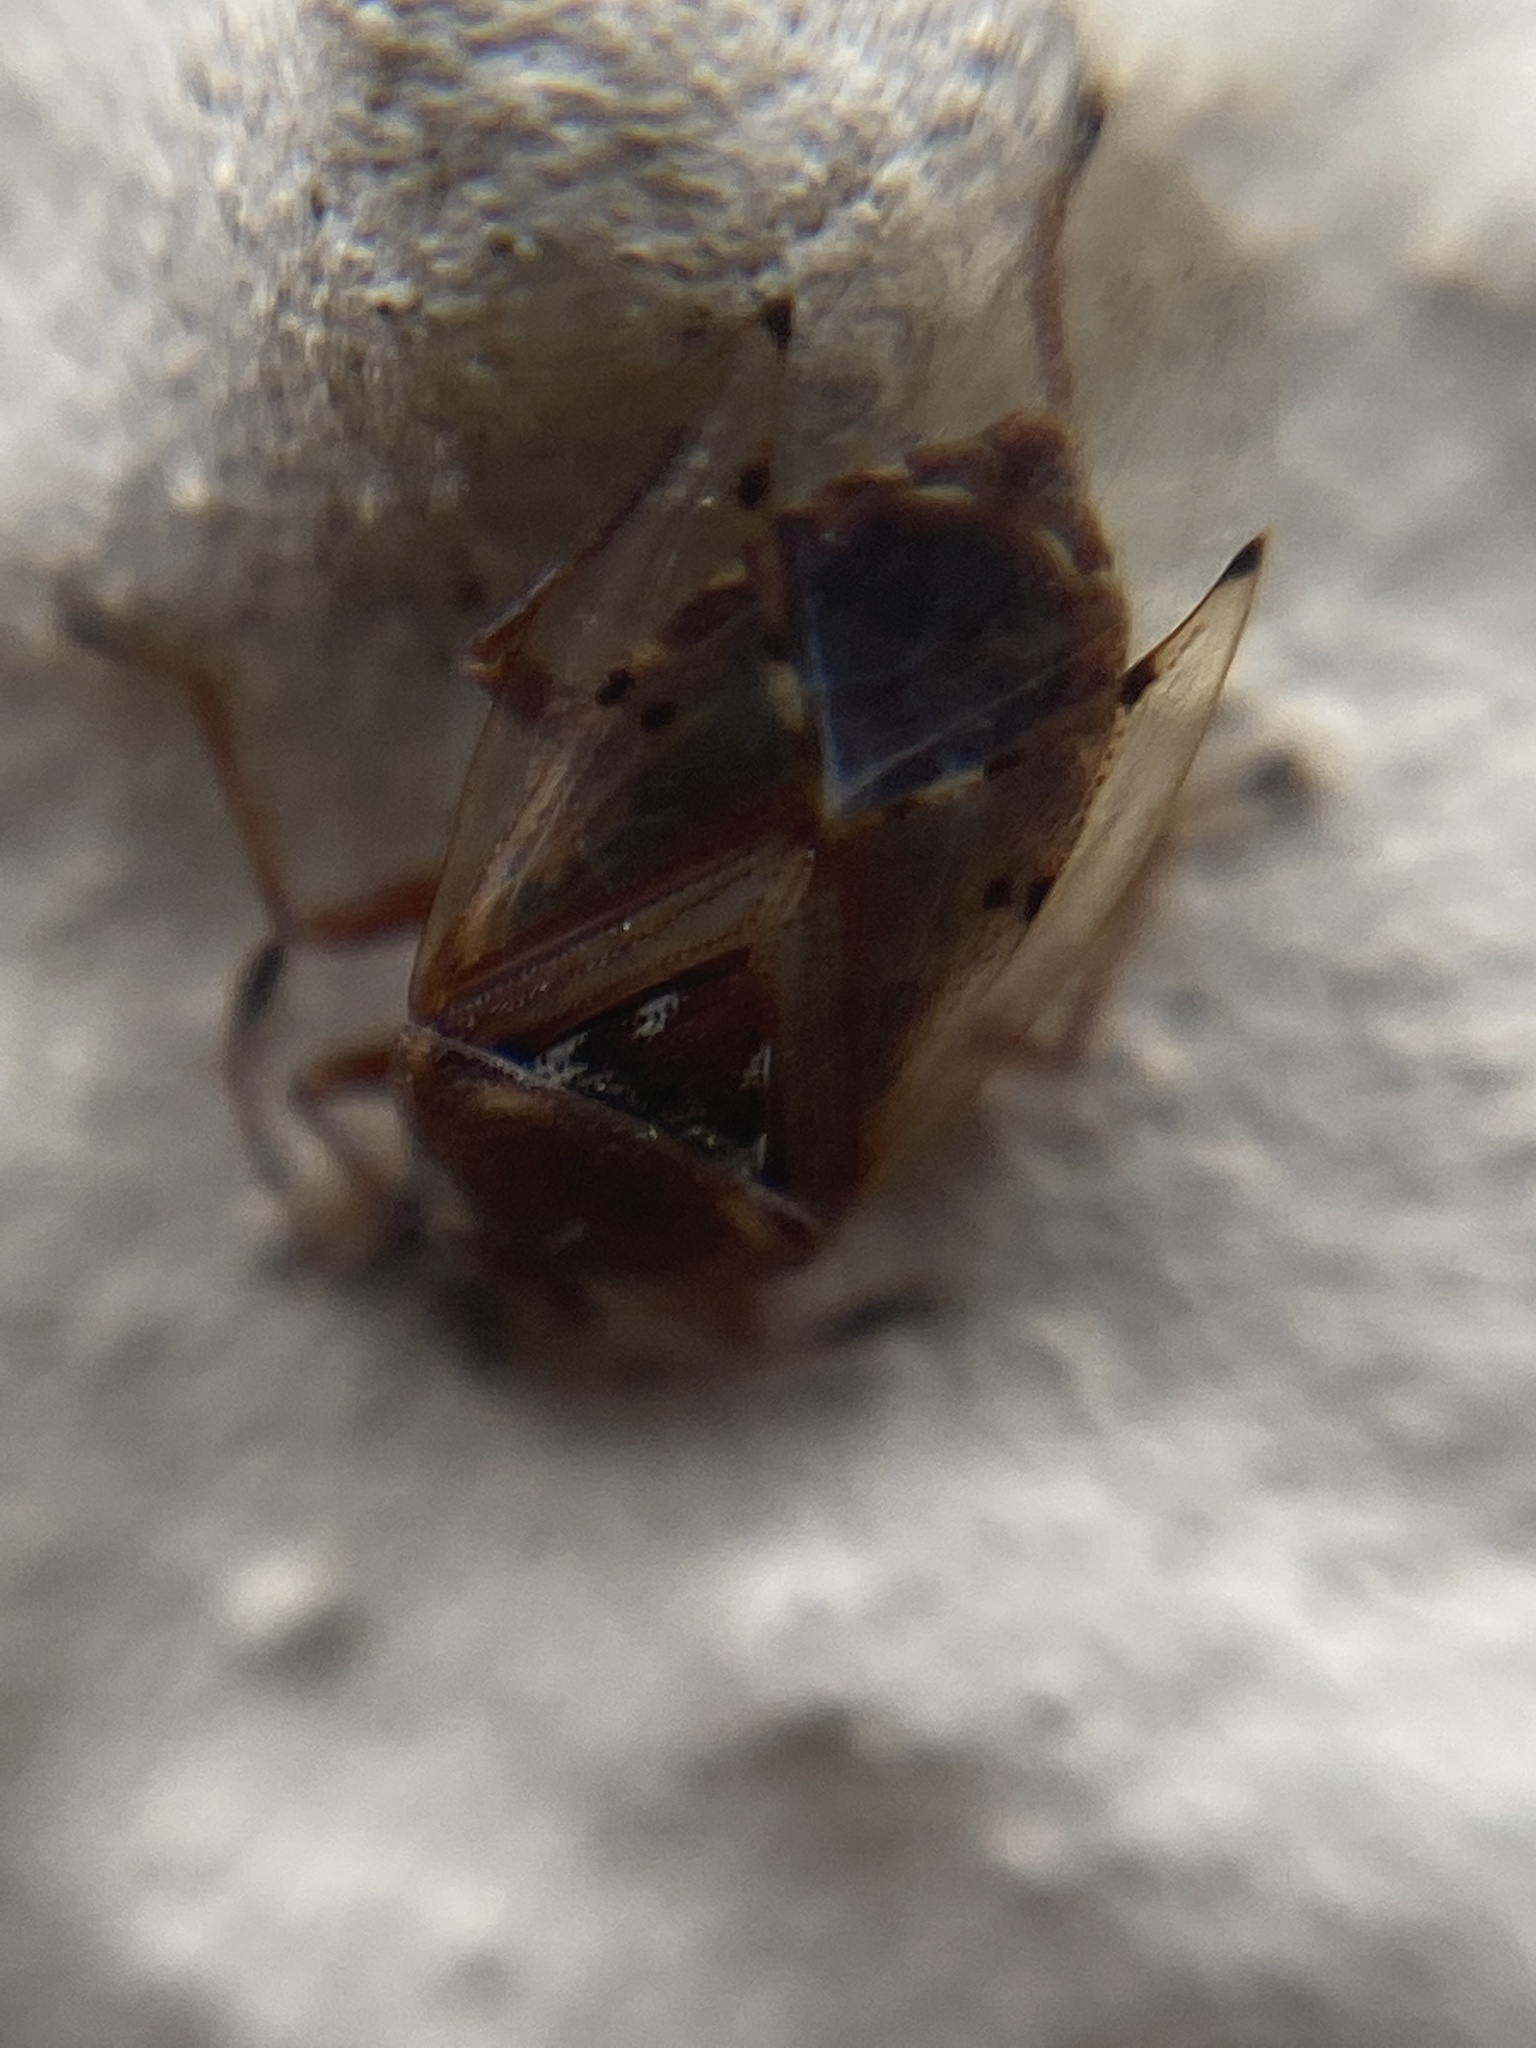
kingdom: Animalia
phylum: Arthropoda
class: Insecta
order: Hemiptera
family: Lygaeidae
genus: Kleidocerys
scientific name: Kleidocerys resedae
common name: Birch catkin bug
